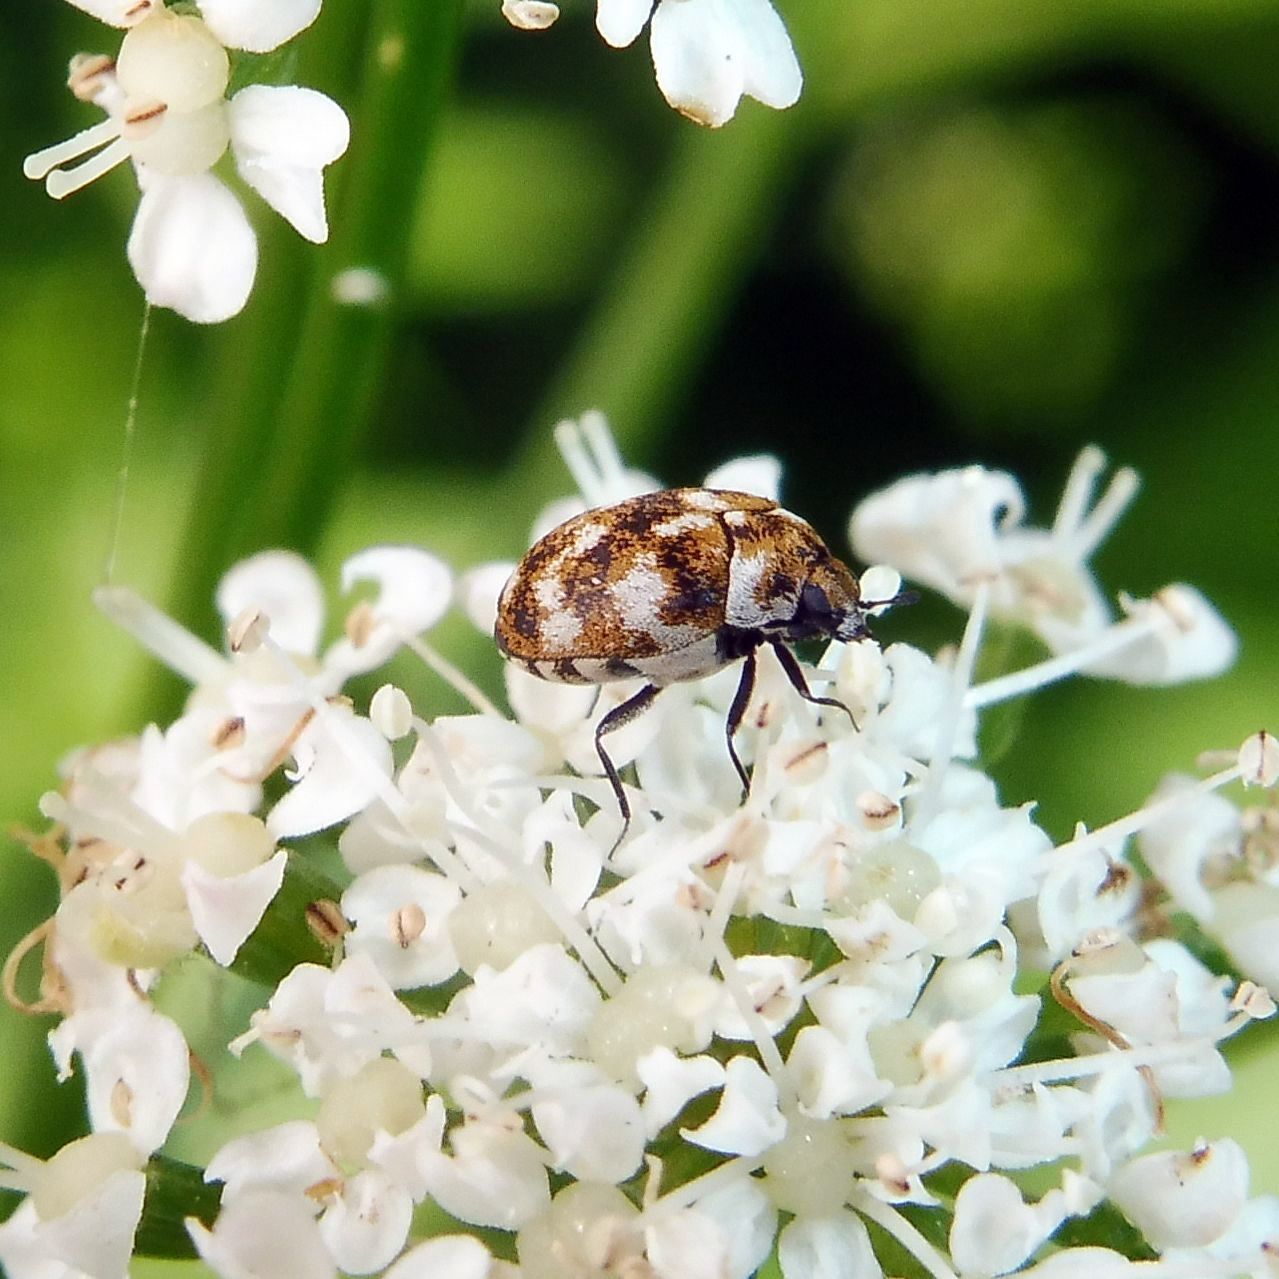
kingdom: Animalia
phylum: Arthropoda
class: Insecta
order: Coleoptera
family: Dermestidae
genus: Anthrenus
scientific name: Anthrenus verbasci
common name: Varied carpet beetle
